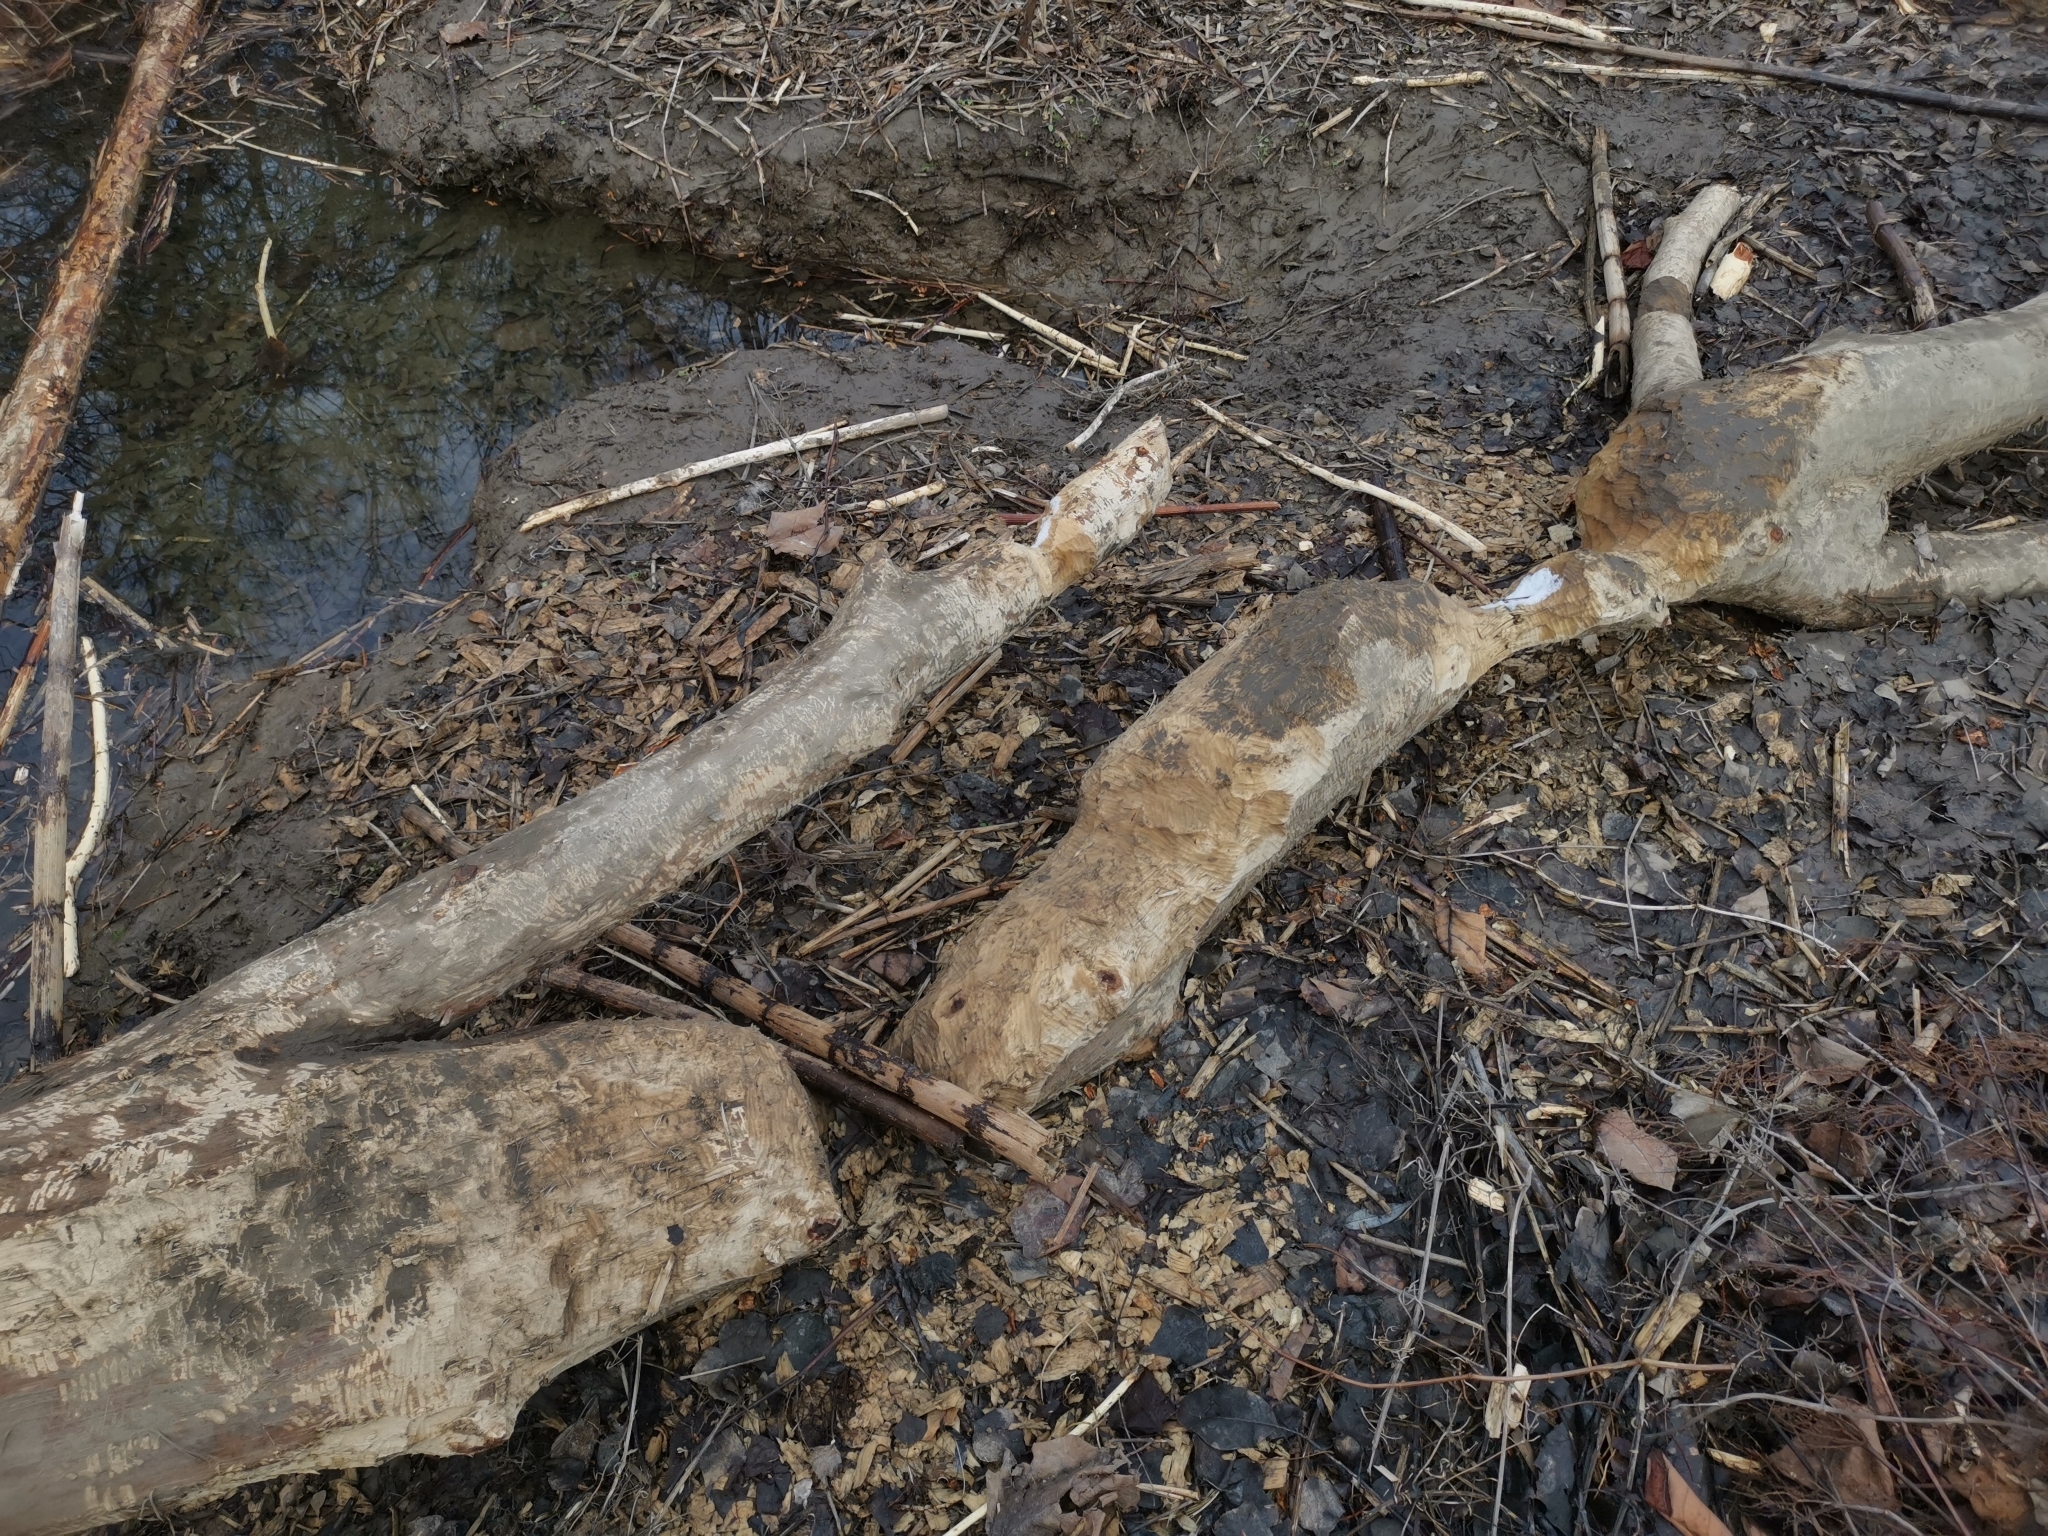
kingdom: Animalia
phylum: Chordata
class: Mammalia
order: Rodentia
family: Castoridae
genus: Castor
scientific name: Castor fiber
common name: Eurasian beaver
